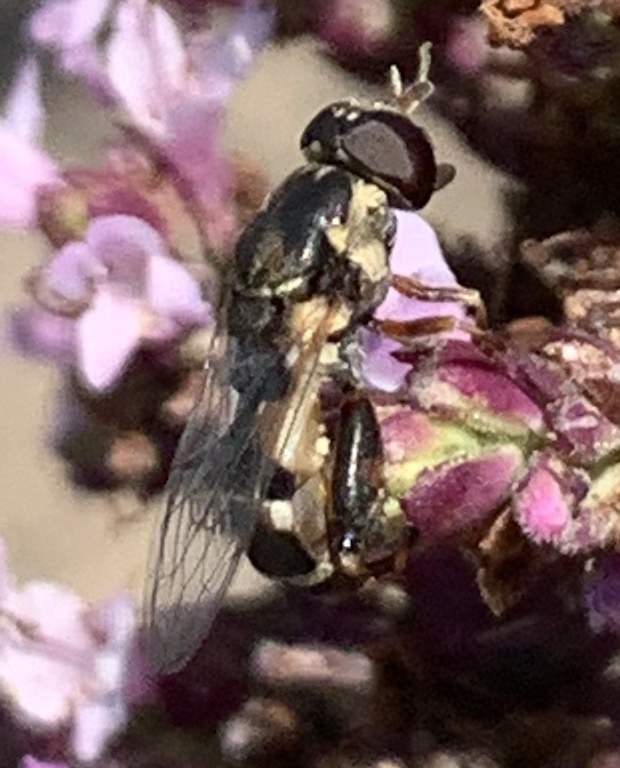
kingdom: Animalia
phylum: Arthropoda
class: Insecta
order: Diptera
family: Syrphidae
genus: Syritta
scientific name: Syritta pipiens
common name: Hover fly
